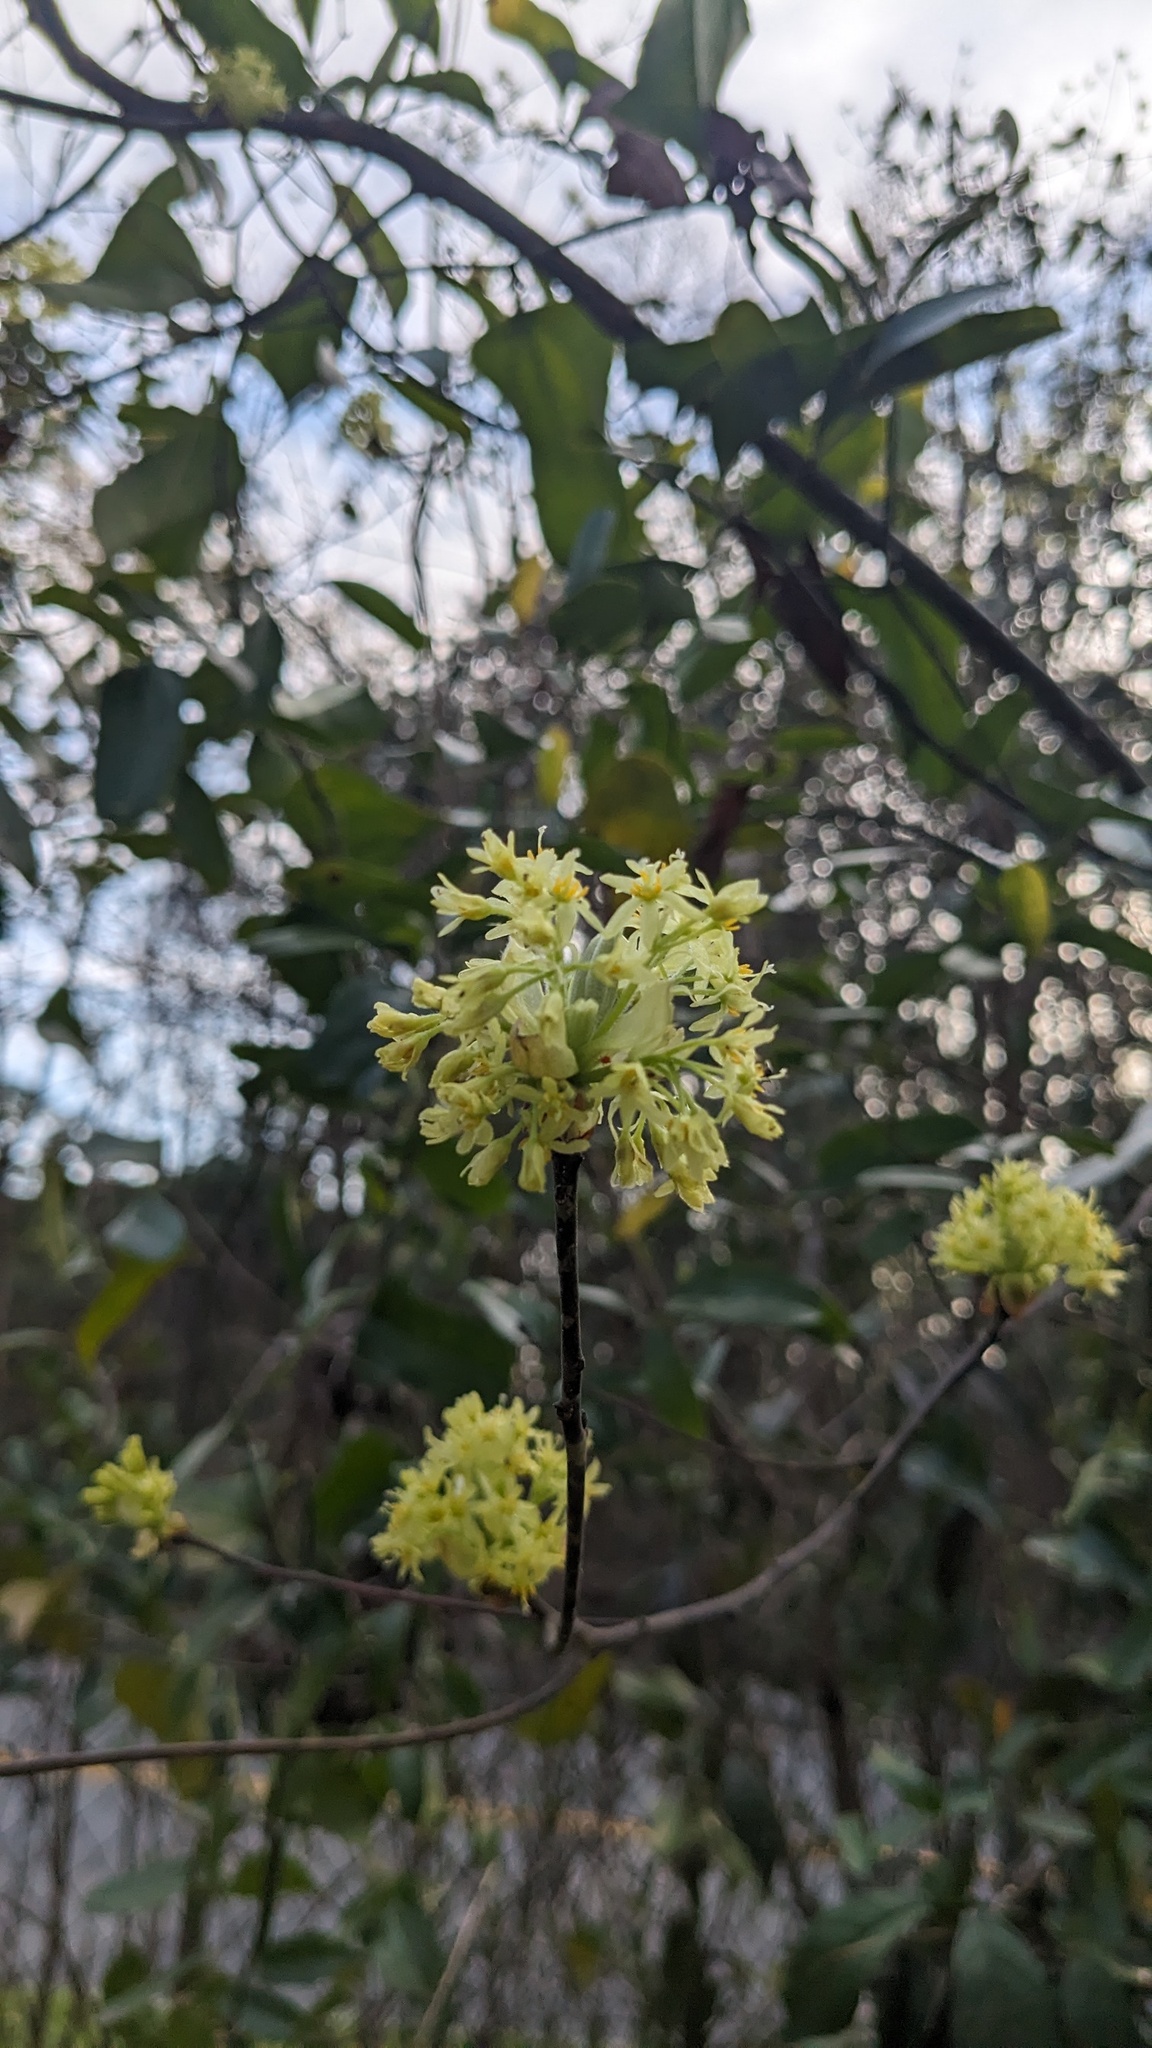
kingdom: Plantae
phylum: Tracheophyta
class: Magnoliopsida
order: Laurales
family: Lauraceae
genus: Sassafras
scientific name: Sassafras albidum
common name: Sassafras
